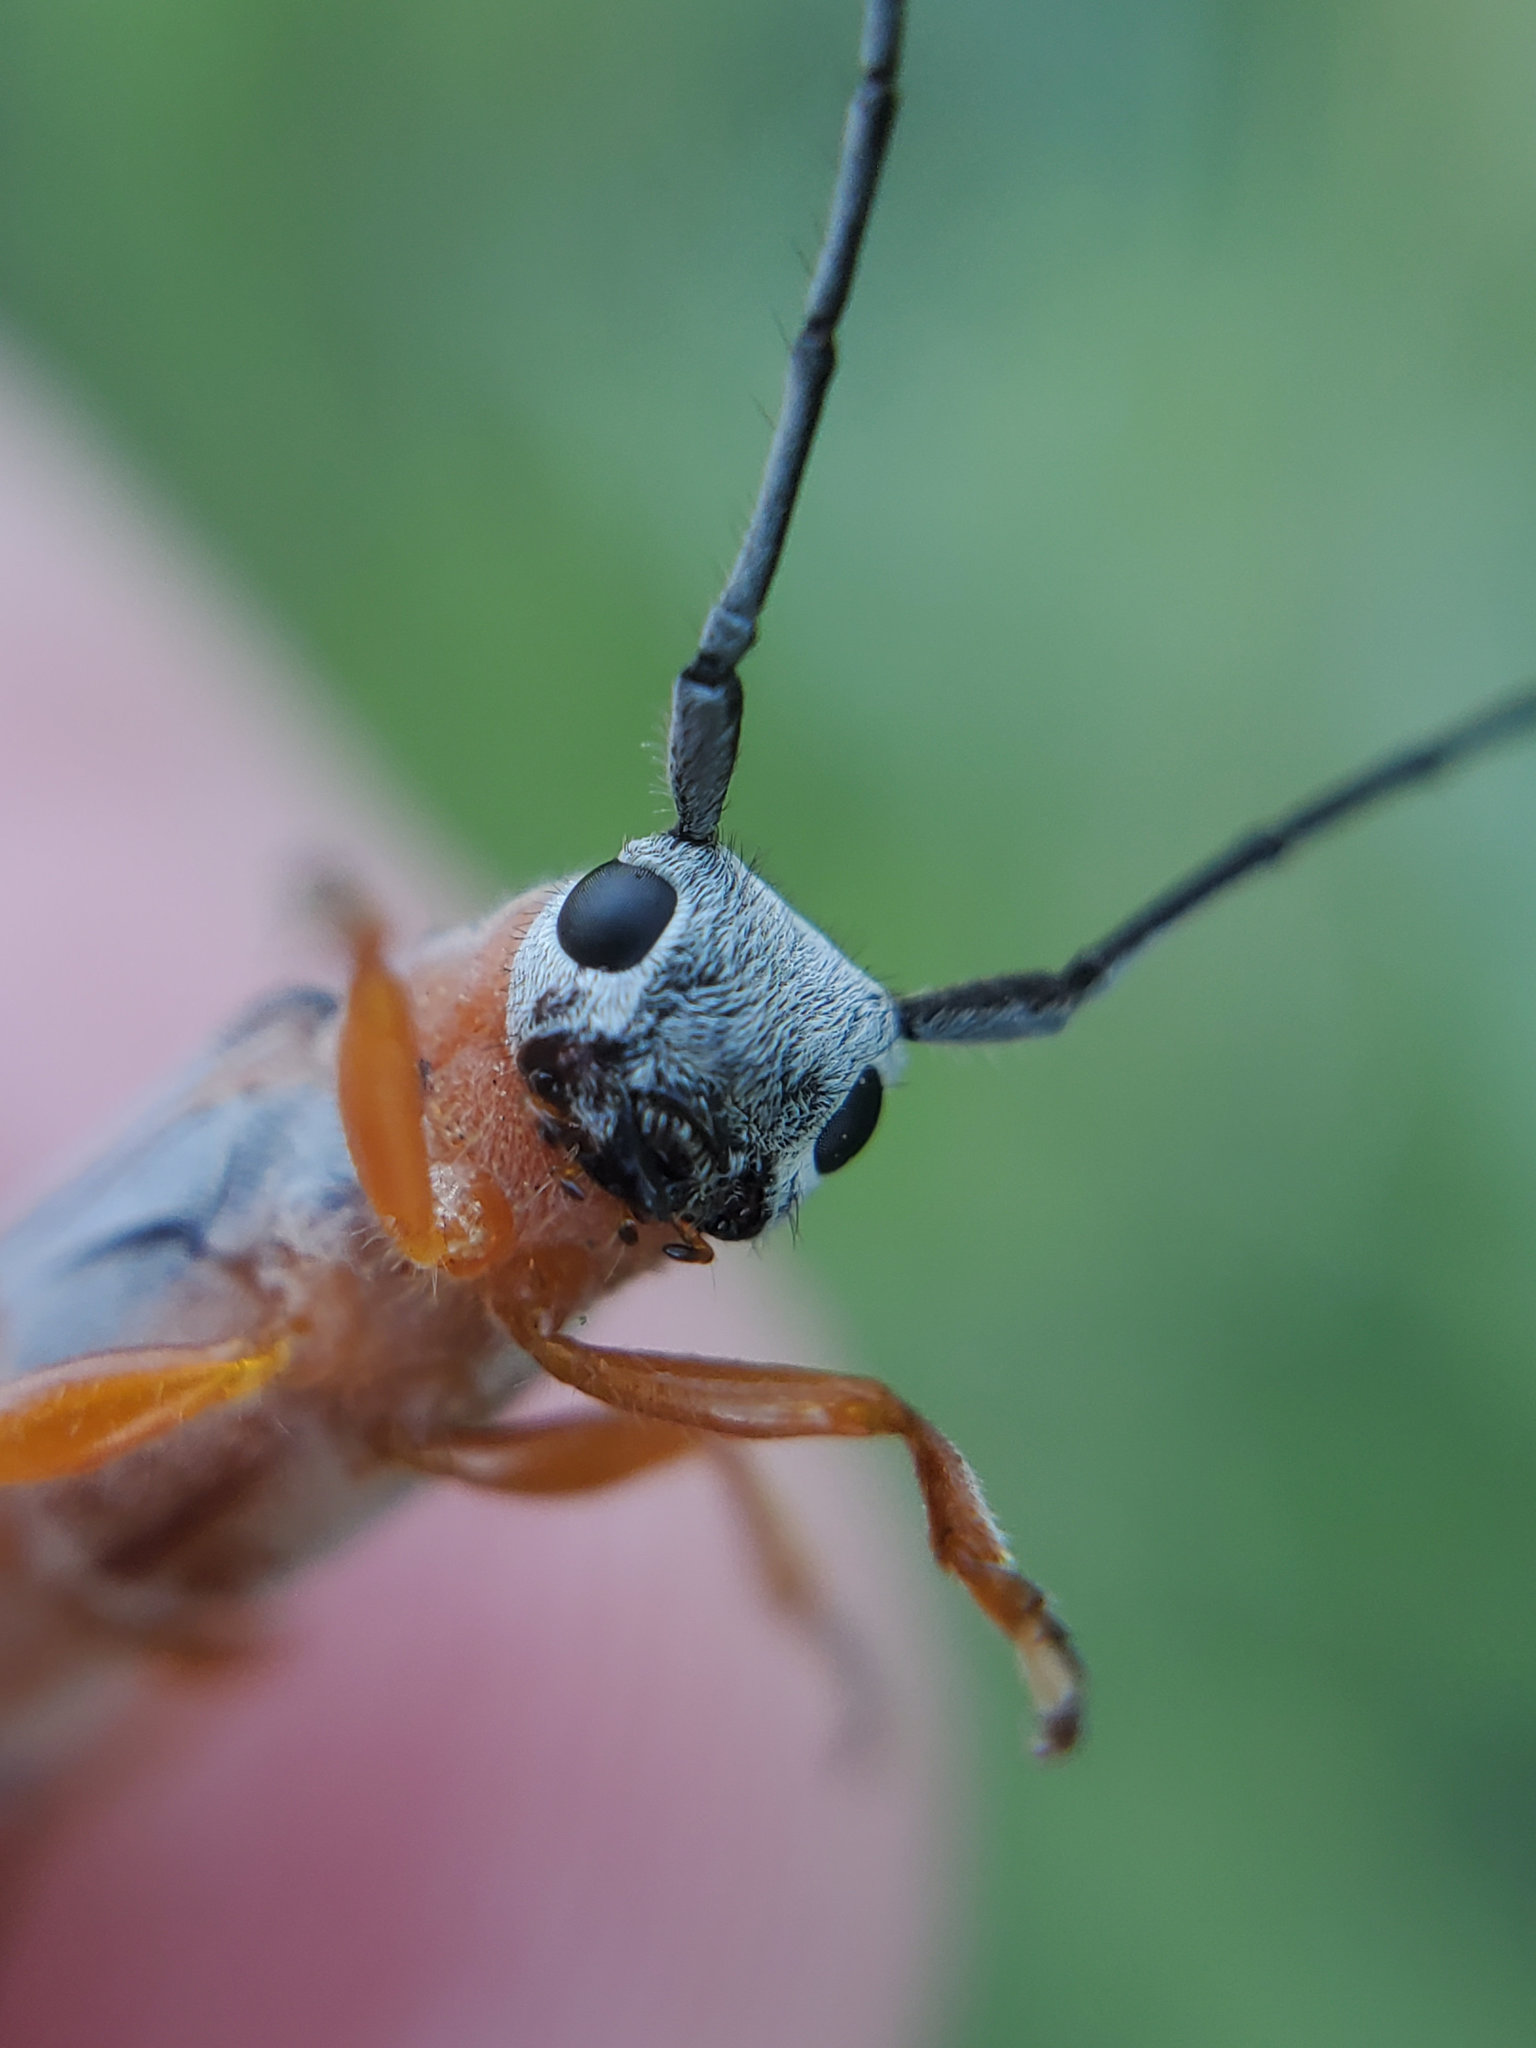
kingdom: Animalia
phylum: Arthropoda
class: Insecta
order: Coleoptera
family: Cerambycidae
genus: Oberea
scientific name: Oberea quadricallosa
